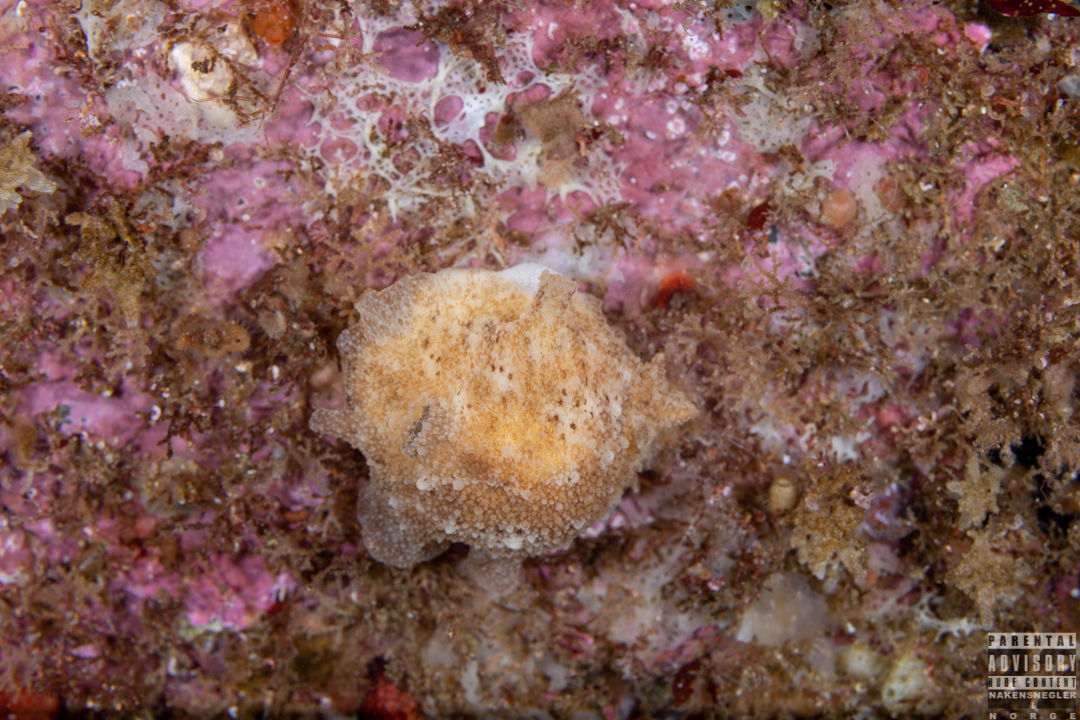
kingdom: Animalia
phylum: Mollusca
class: Gastropoda
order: Nudibranchia
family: Discodorididae
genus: Geitodoris
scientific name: Geitodoris planata
